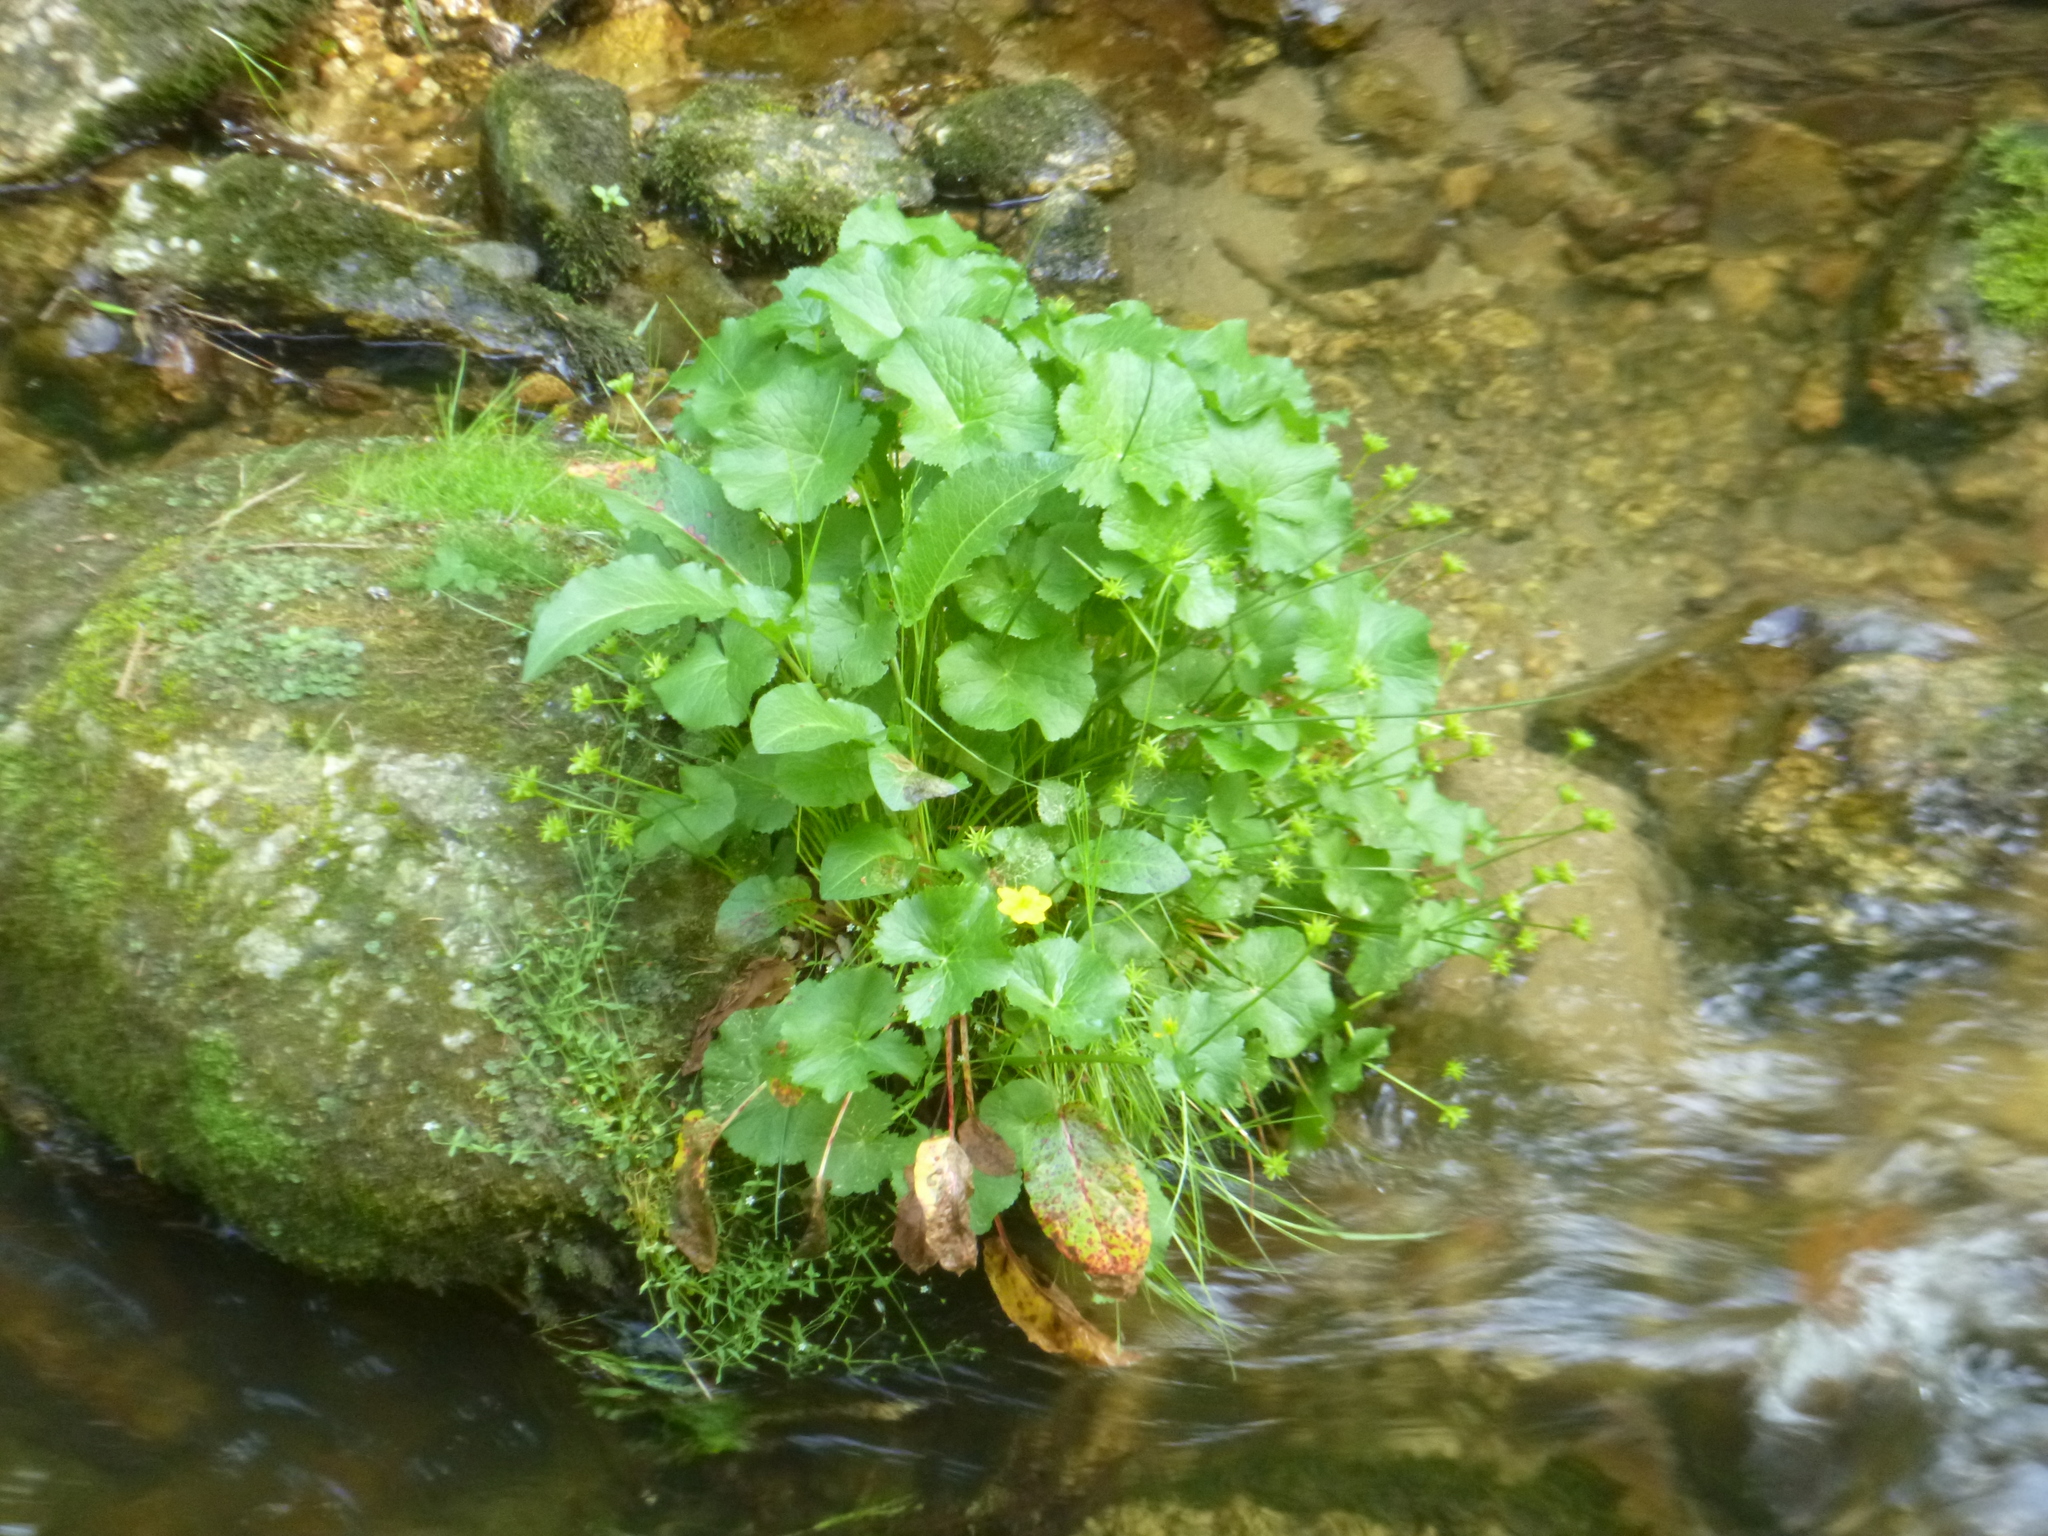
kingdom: Plantae
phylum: Tracheophyta
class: Magnoliopsida
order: Ranunculales
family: Ranunculaceae
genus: Caltha
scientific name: Caltha palustris
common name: Marsh marigold
